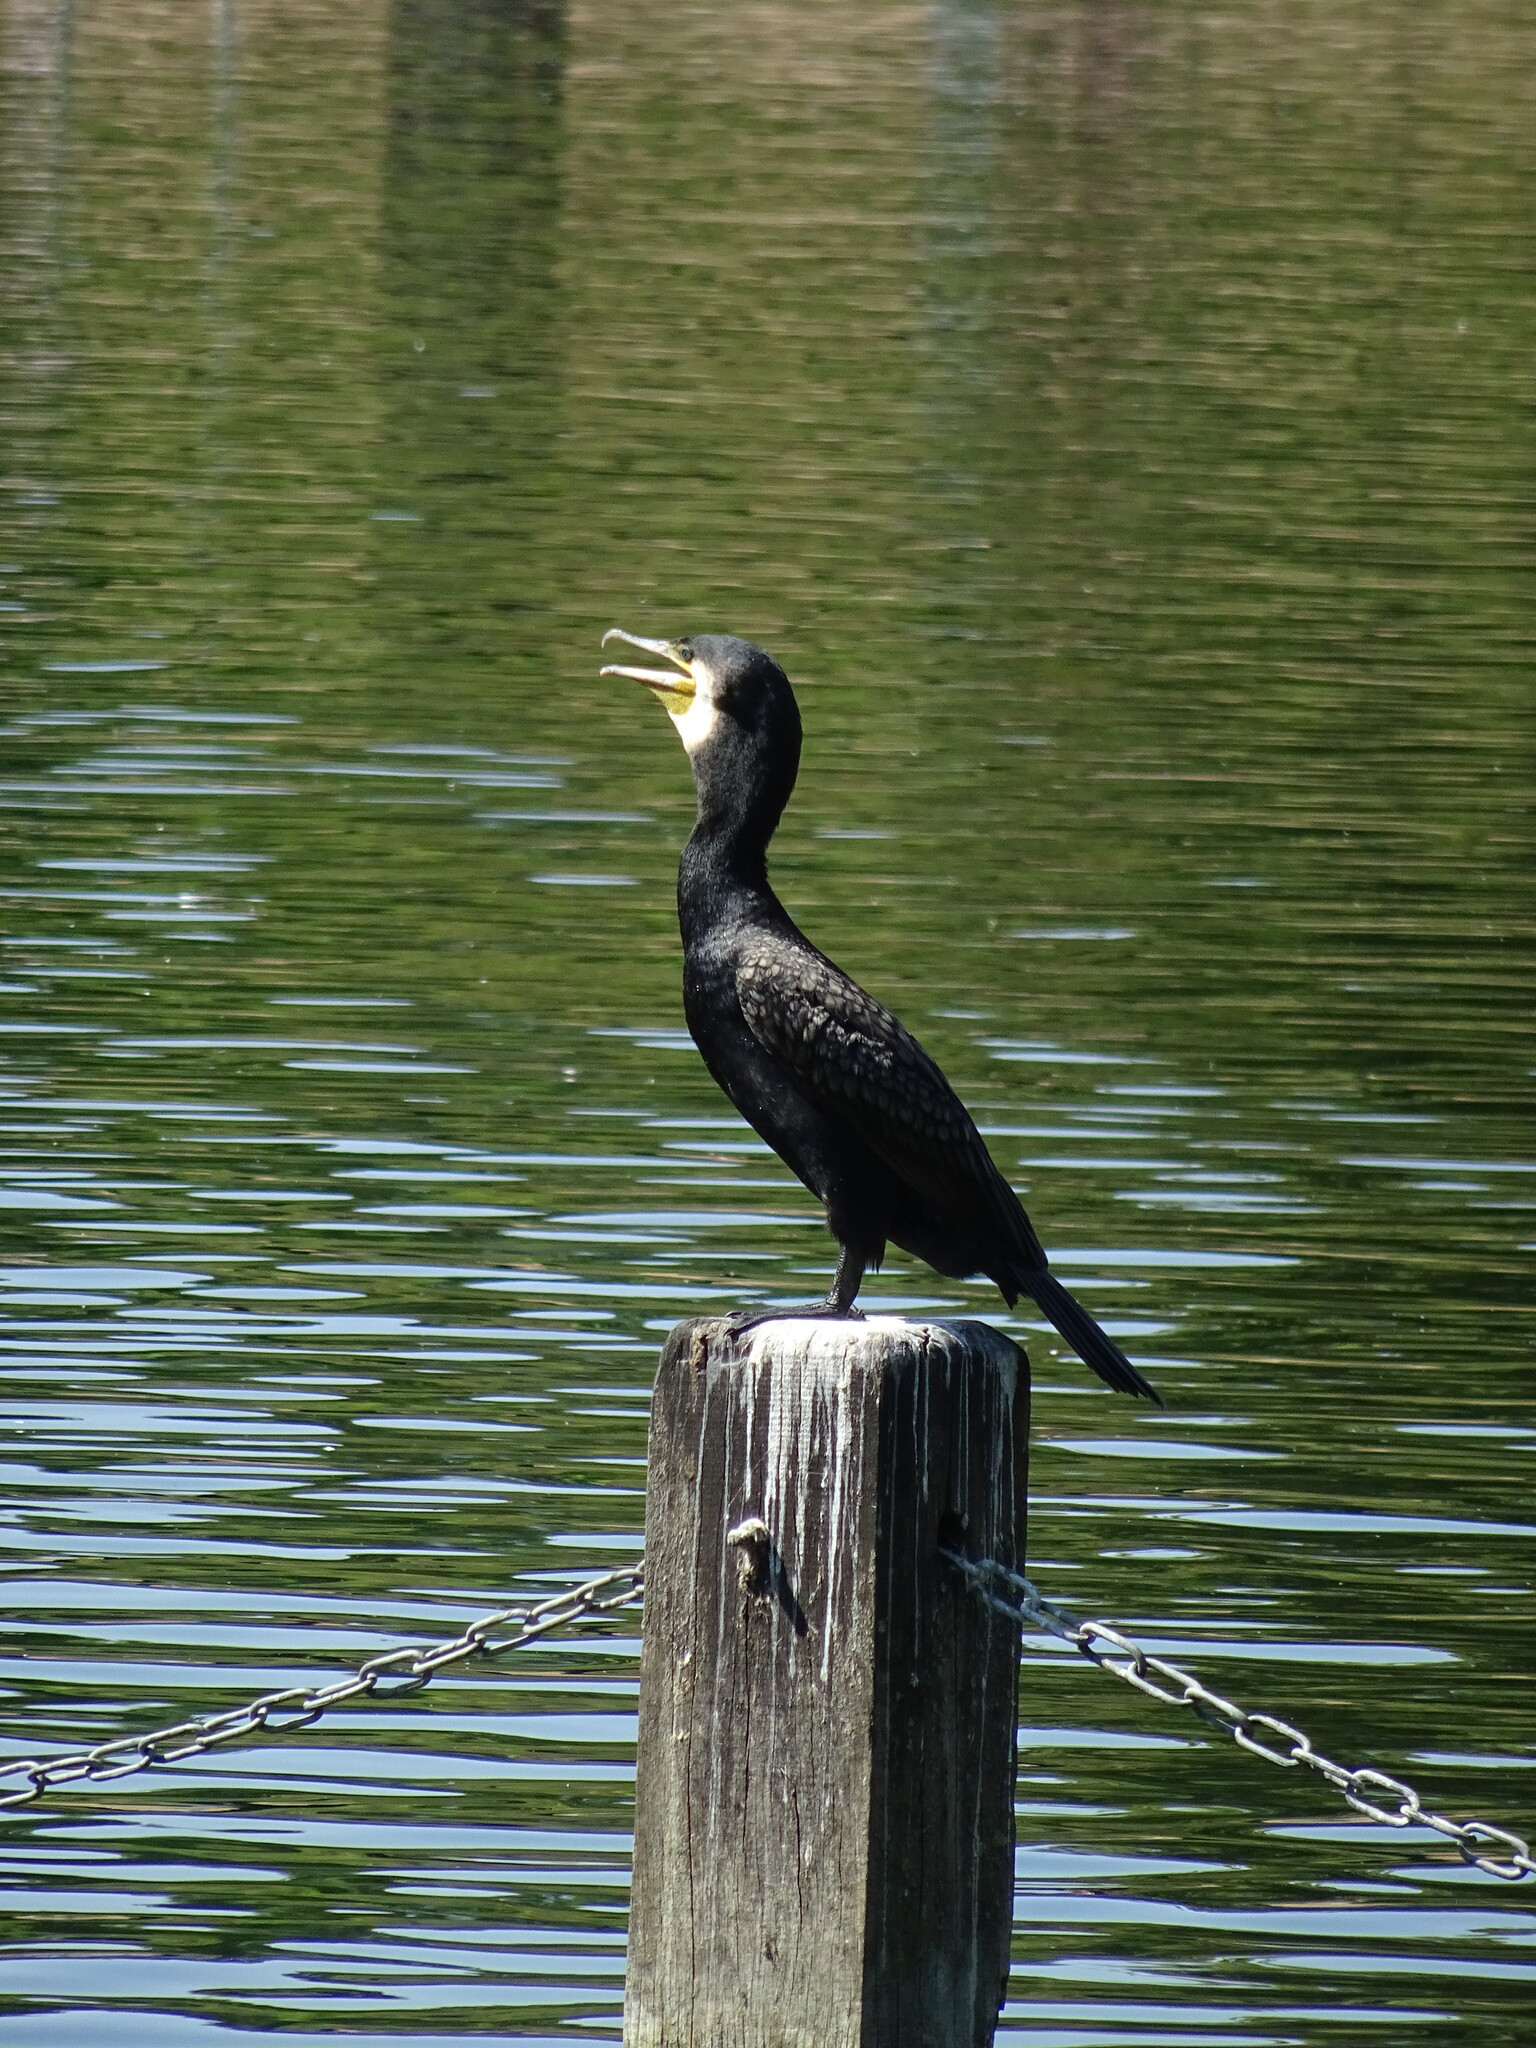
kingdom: Animalia
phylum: Chordata
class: Aves
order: Suliformes
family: Phalacrocoracidae
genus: Phalacrocorax
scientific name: Phalacrocorax carbo
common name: Great cormorant
